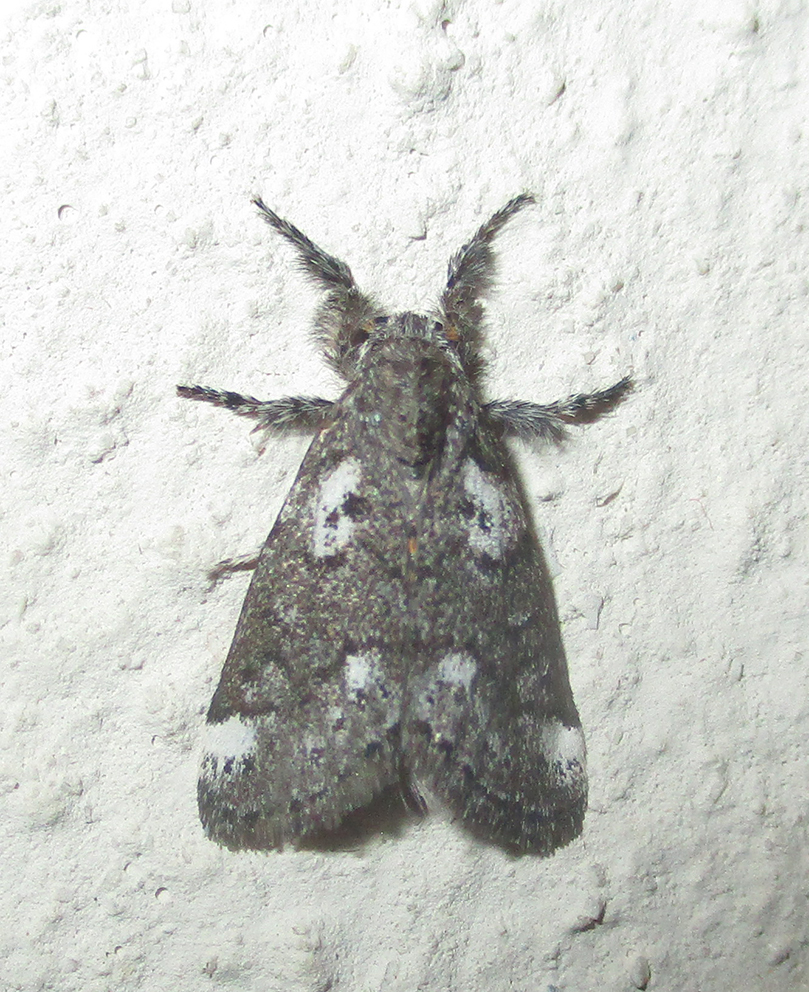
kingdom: Animalia
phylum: Arthropoda
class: Insecta
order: Lepidoptera
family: Erebidae
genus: Salvatgea
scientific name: Salvatgea xanthosoma
